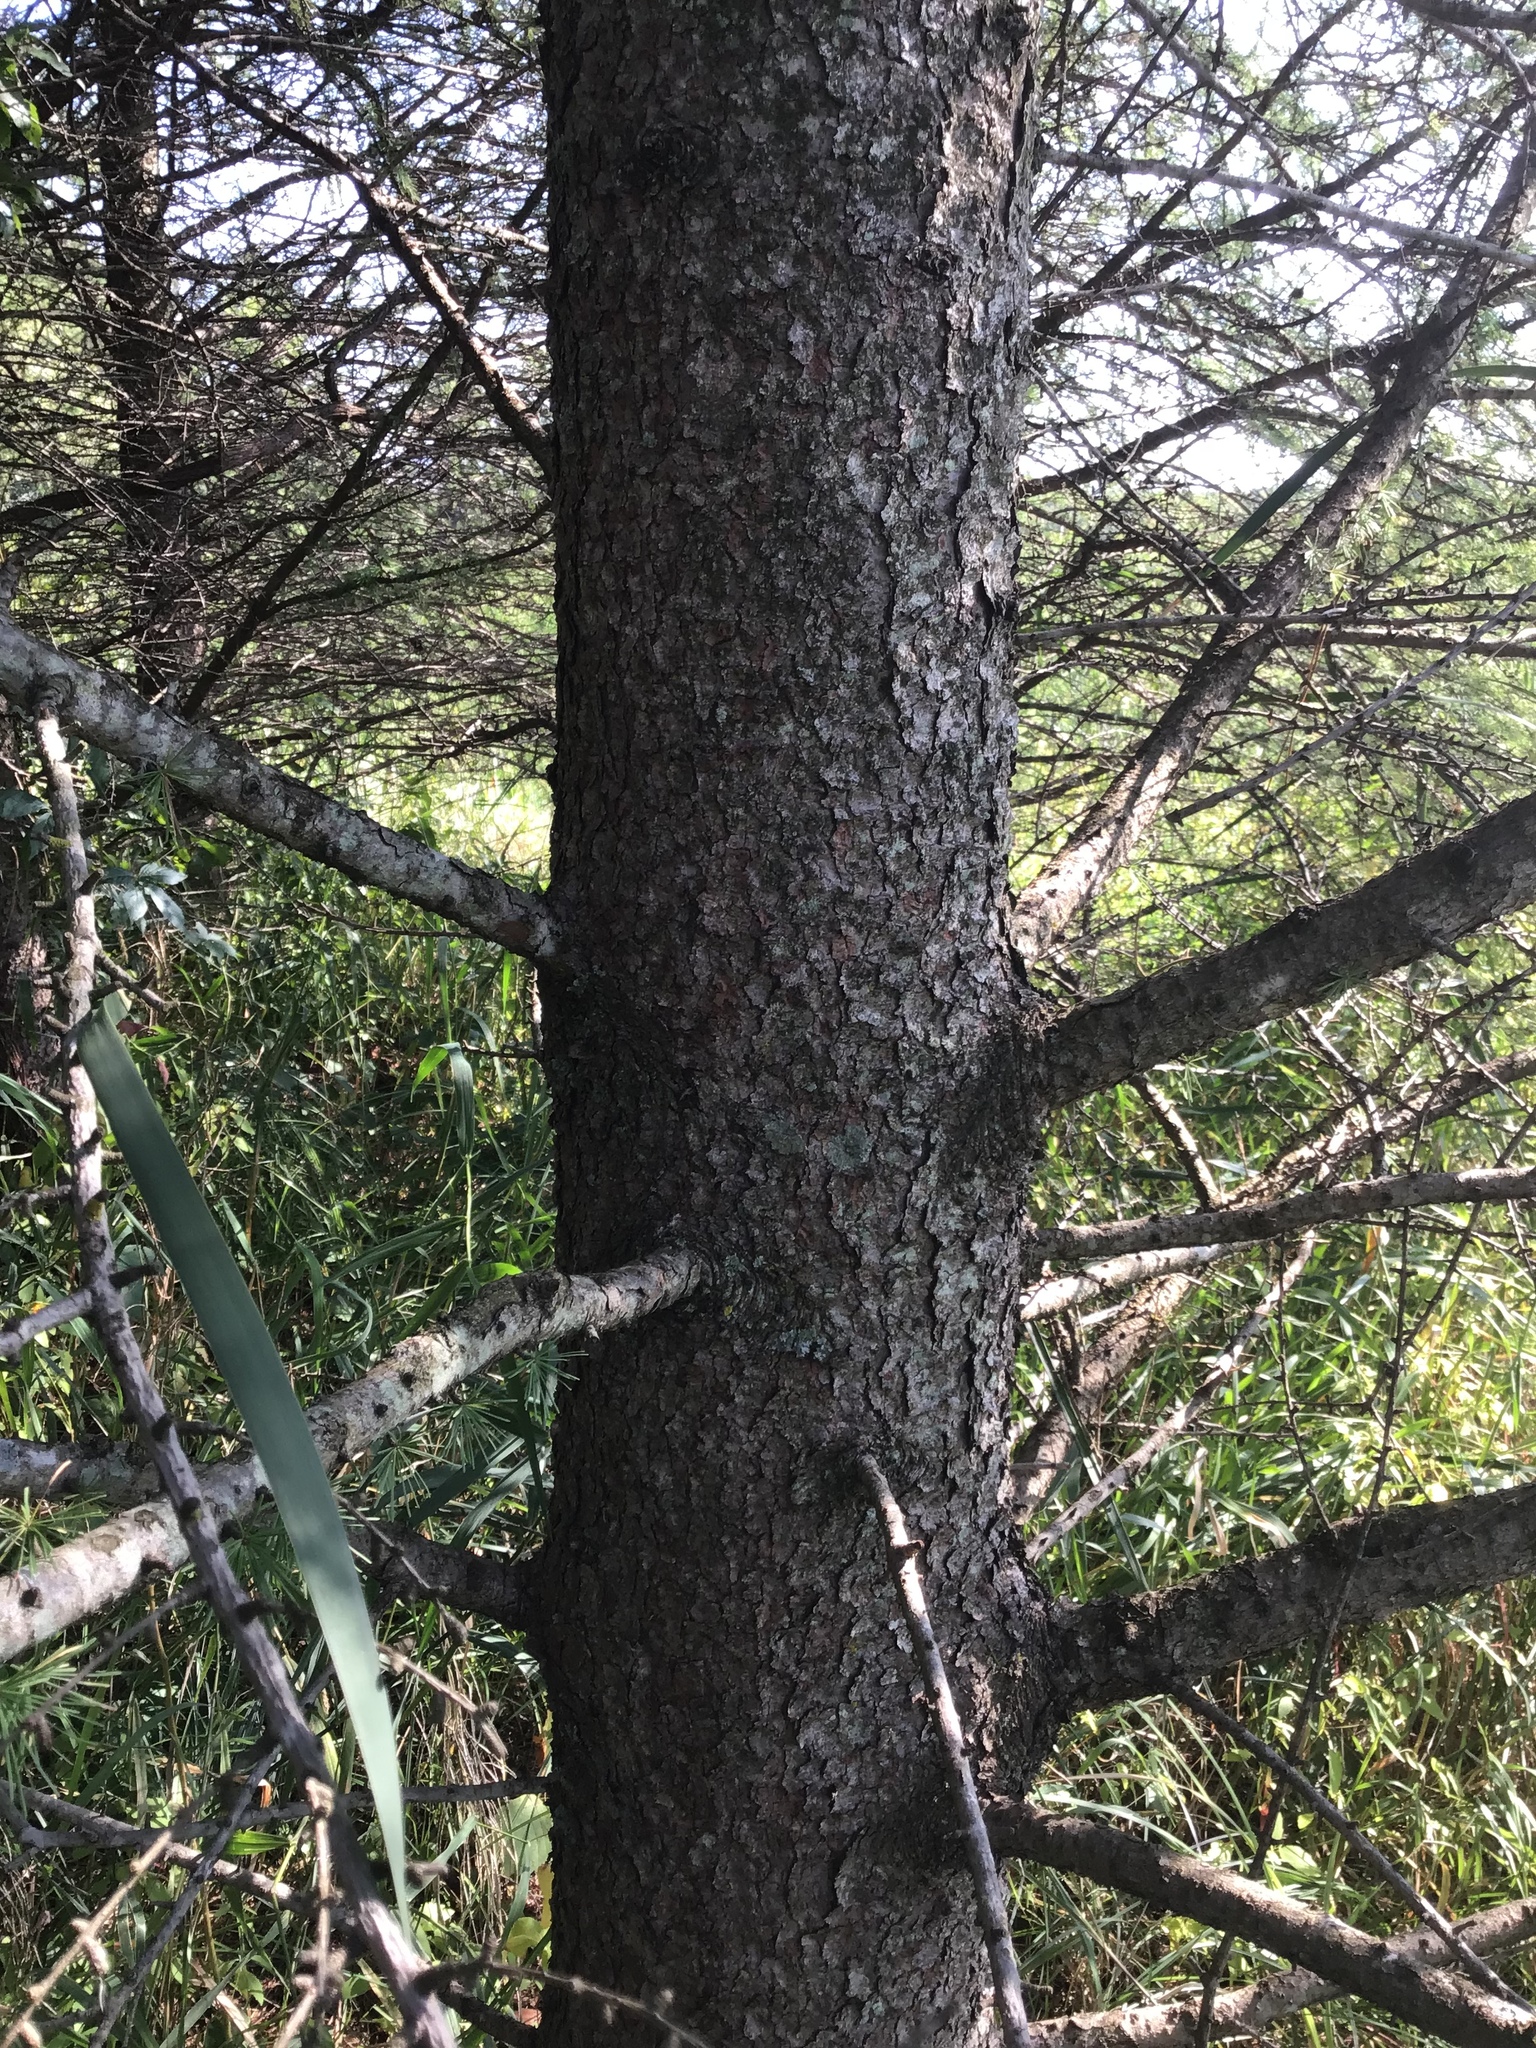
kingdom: Plantae
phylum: Tracheophyta
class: Pinopsida
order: Pinales
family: Pinaceae
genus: Larix
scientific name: Larix laricina
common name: American larch
